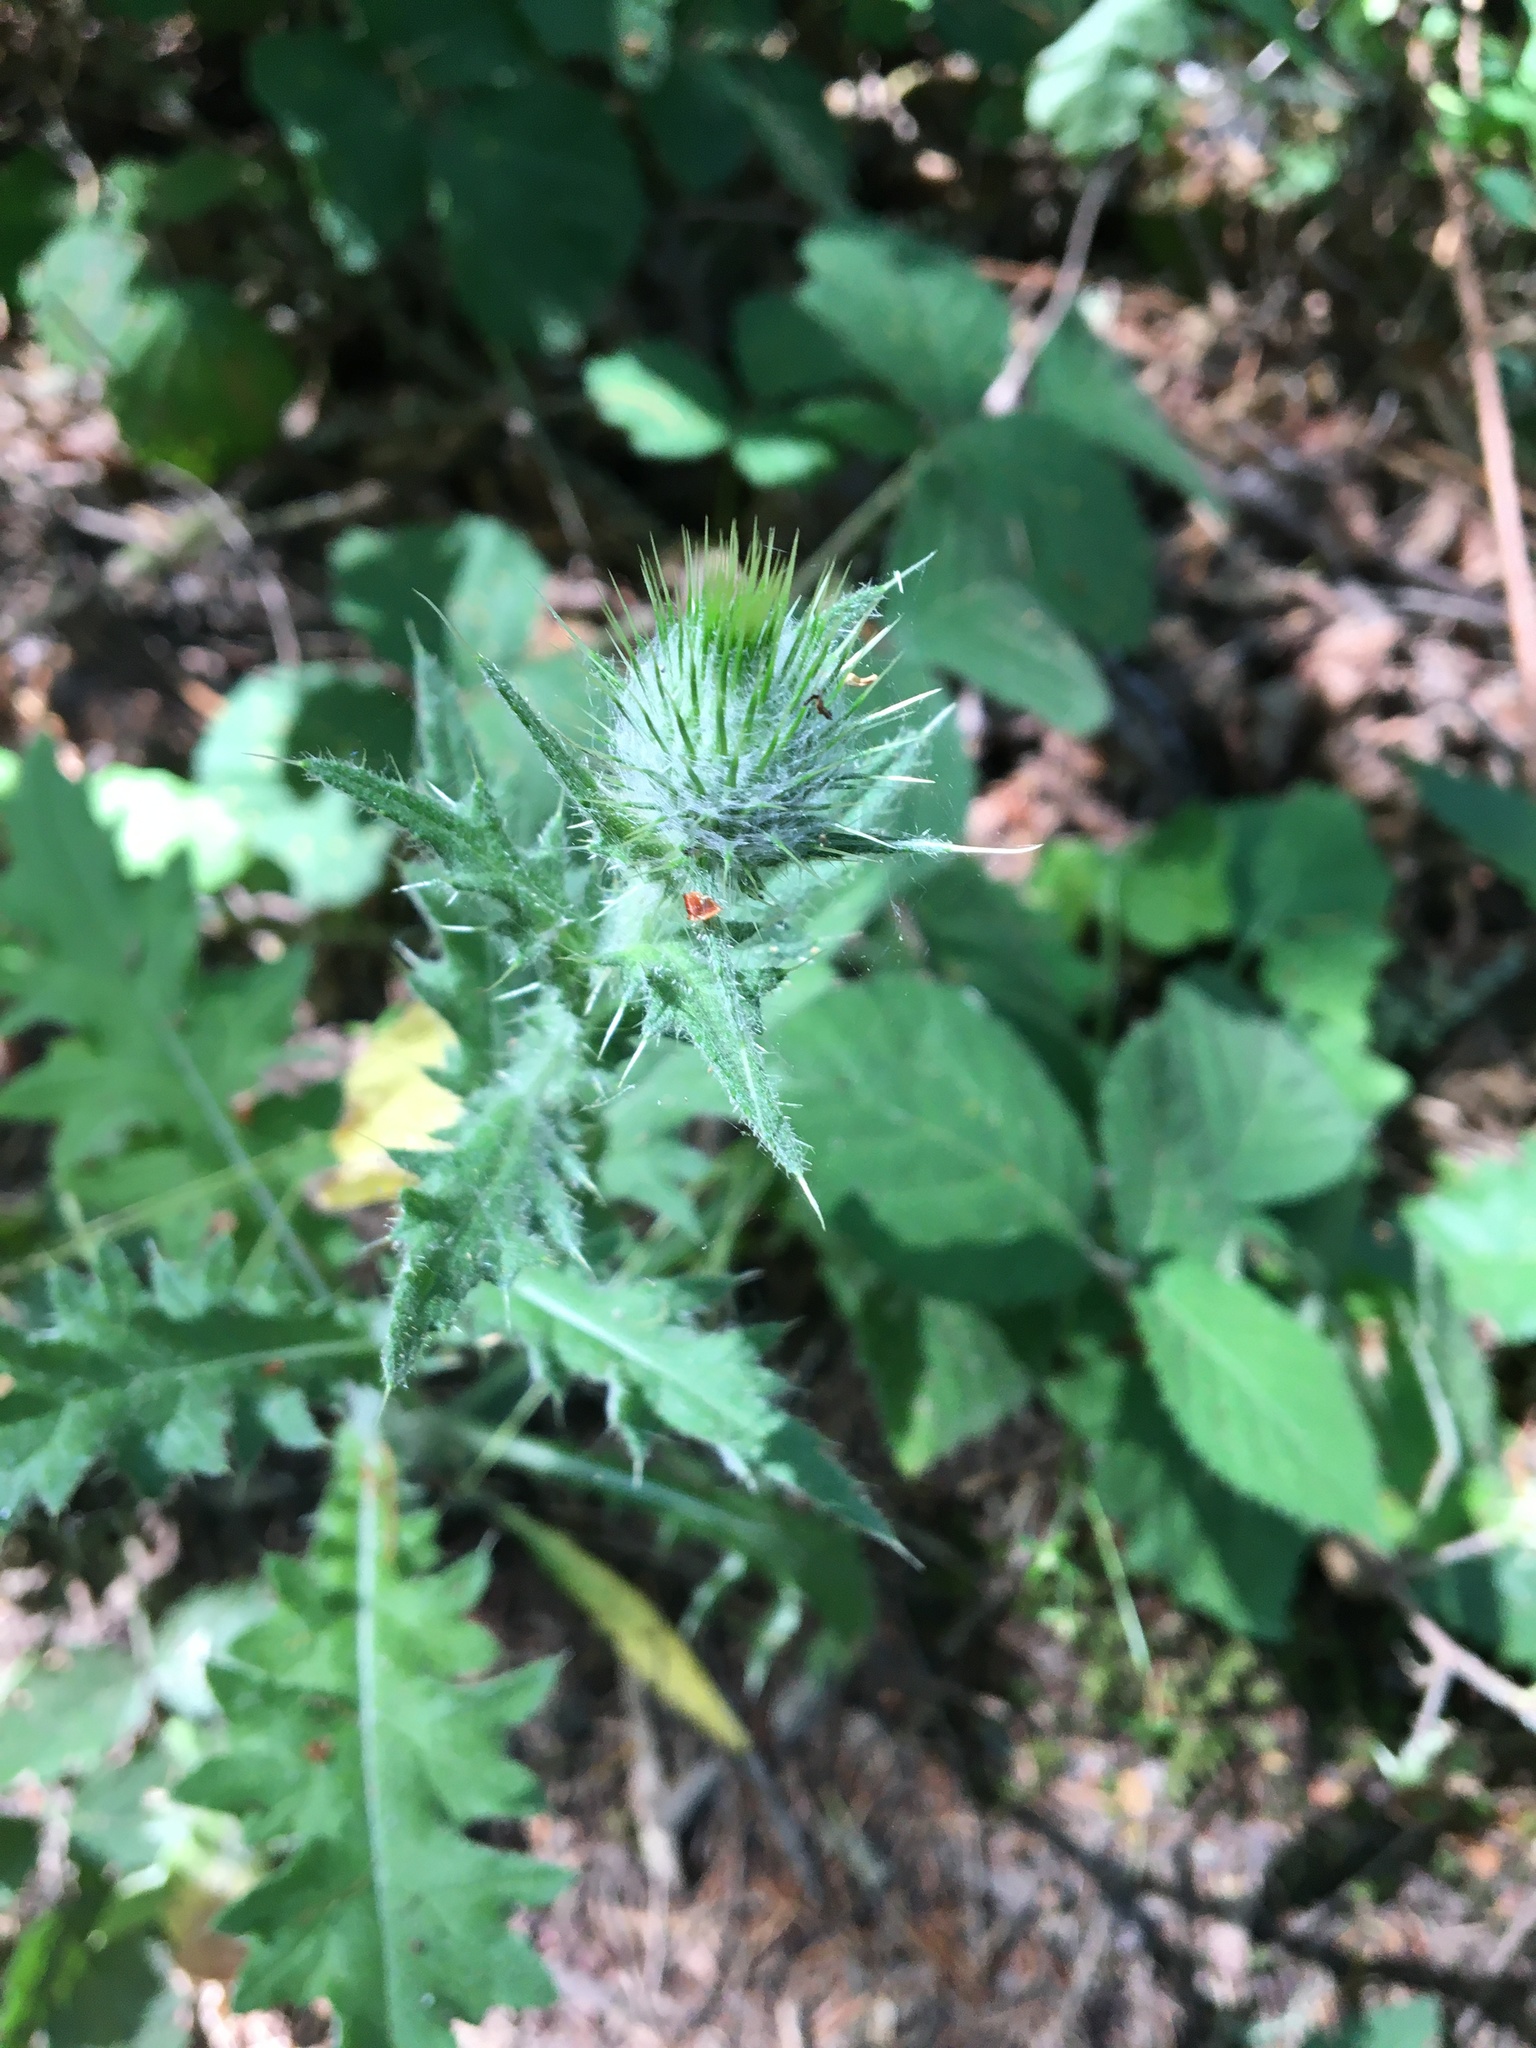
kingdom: Plantae
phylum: Tracheophyta
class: Magnoliopsida
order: Asterales
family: Asteraceae
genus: Cirsium
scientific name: Cirsium vulgare
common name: Bull thistle
